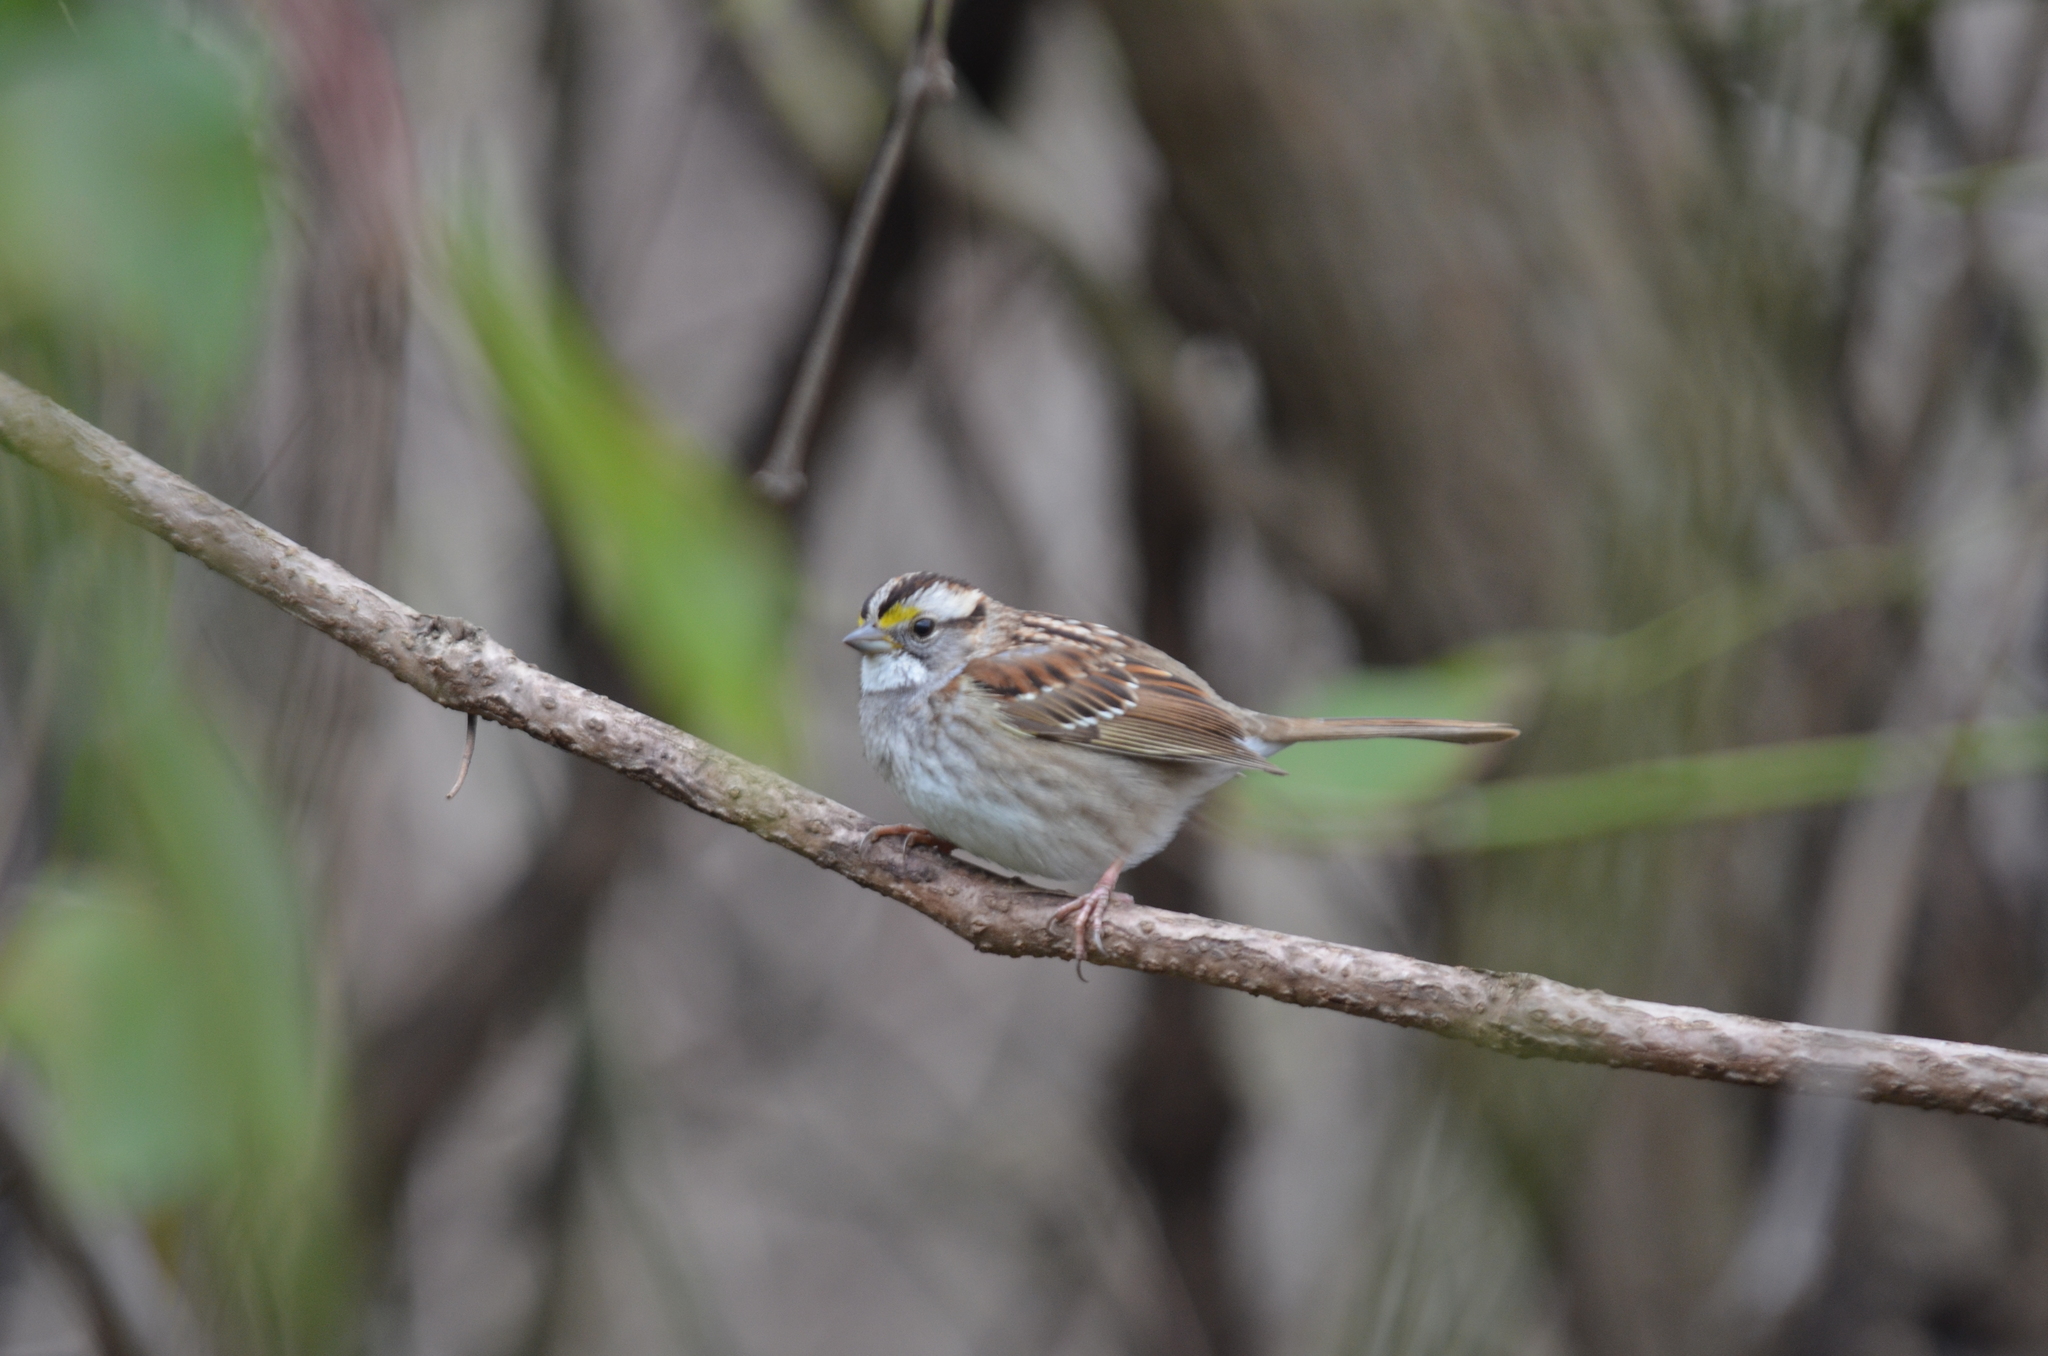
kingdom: Animalia
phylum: Chordata
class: Aves
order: Passeriformes
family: Passerellidae
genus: Zonotrichia
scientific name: Zonotrichia albicollis
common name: White-throated sparrow
